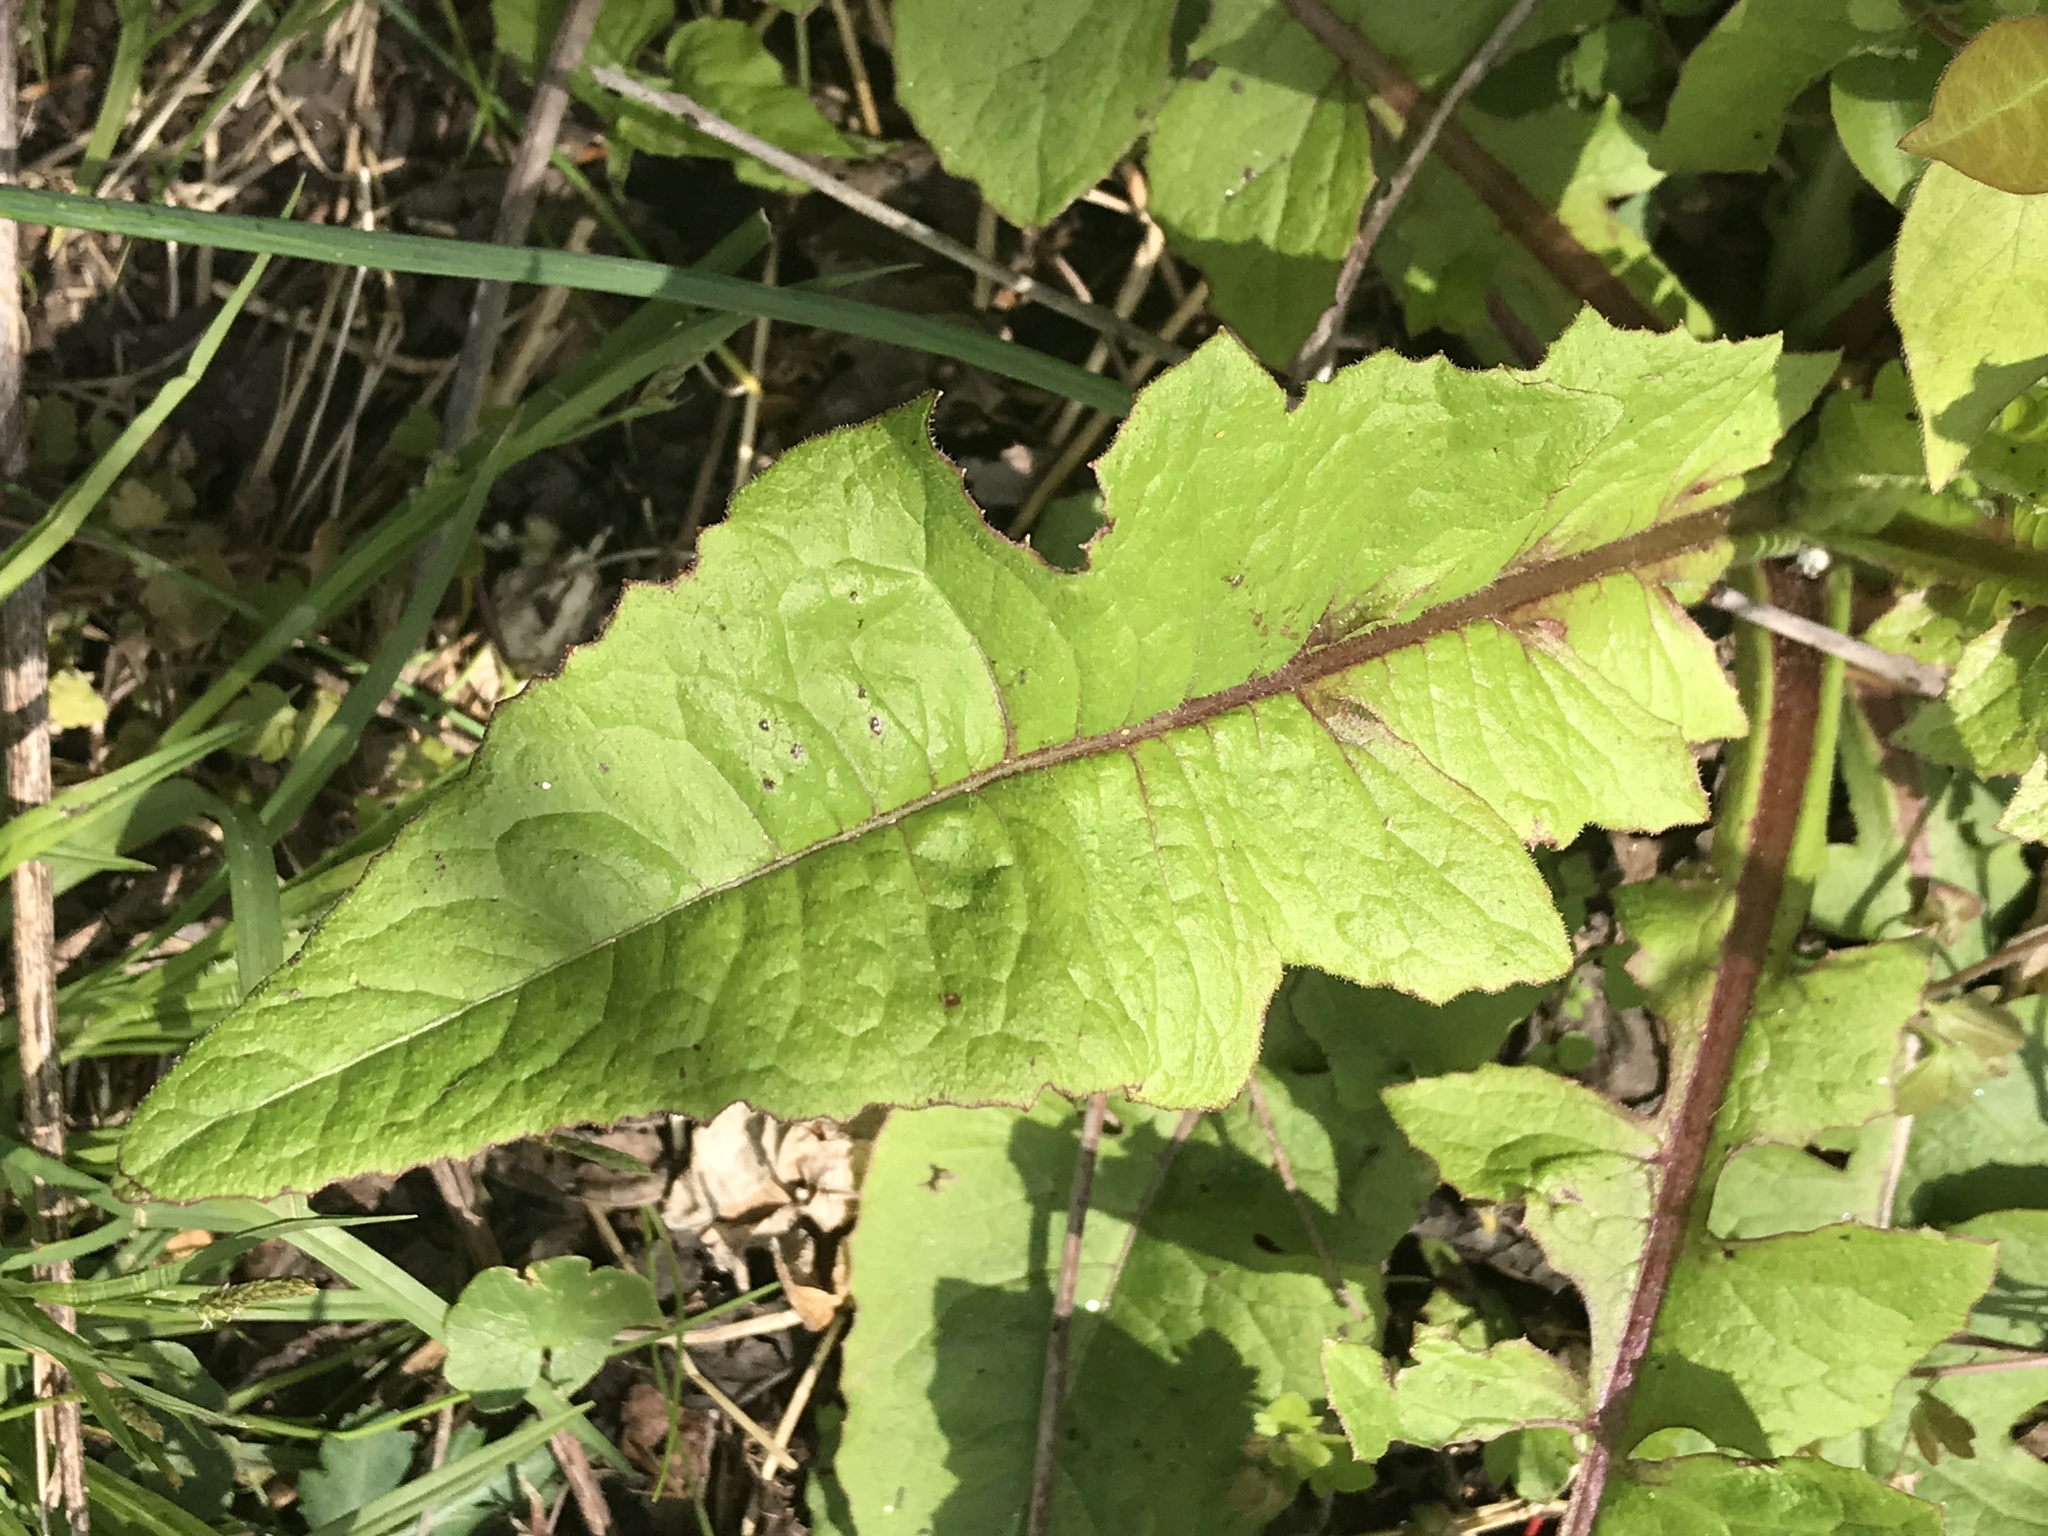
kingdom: Plantae
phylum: Tracheophyta
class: Magnoliopsida
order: Asterales
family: Asteraceae
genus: Taraxacum
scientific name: Taraxacum officinale
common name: Common dandelion
